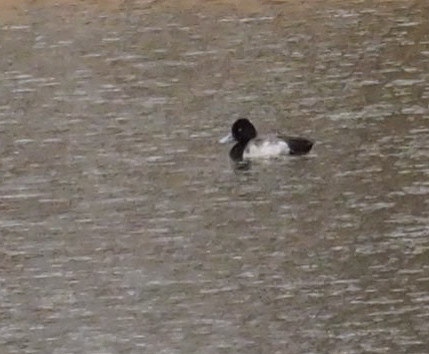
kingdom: Animalia
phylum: Chordata
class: Aves
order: Anseriformes
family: Anatidae
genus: Aythya
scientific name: Aythya affinis
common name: Lesser scaup
